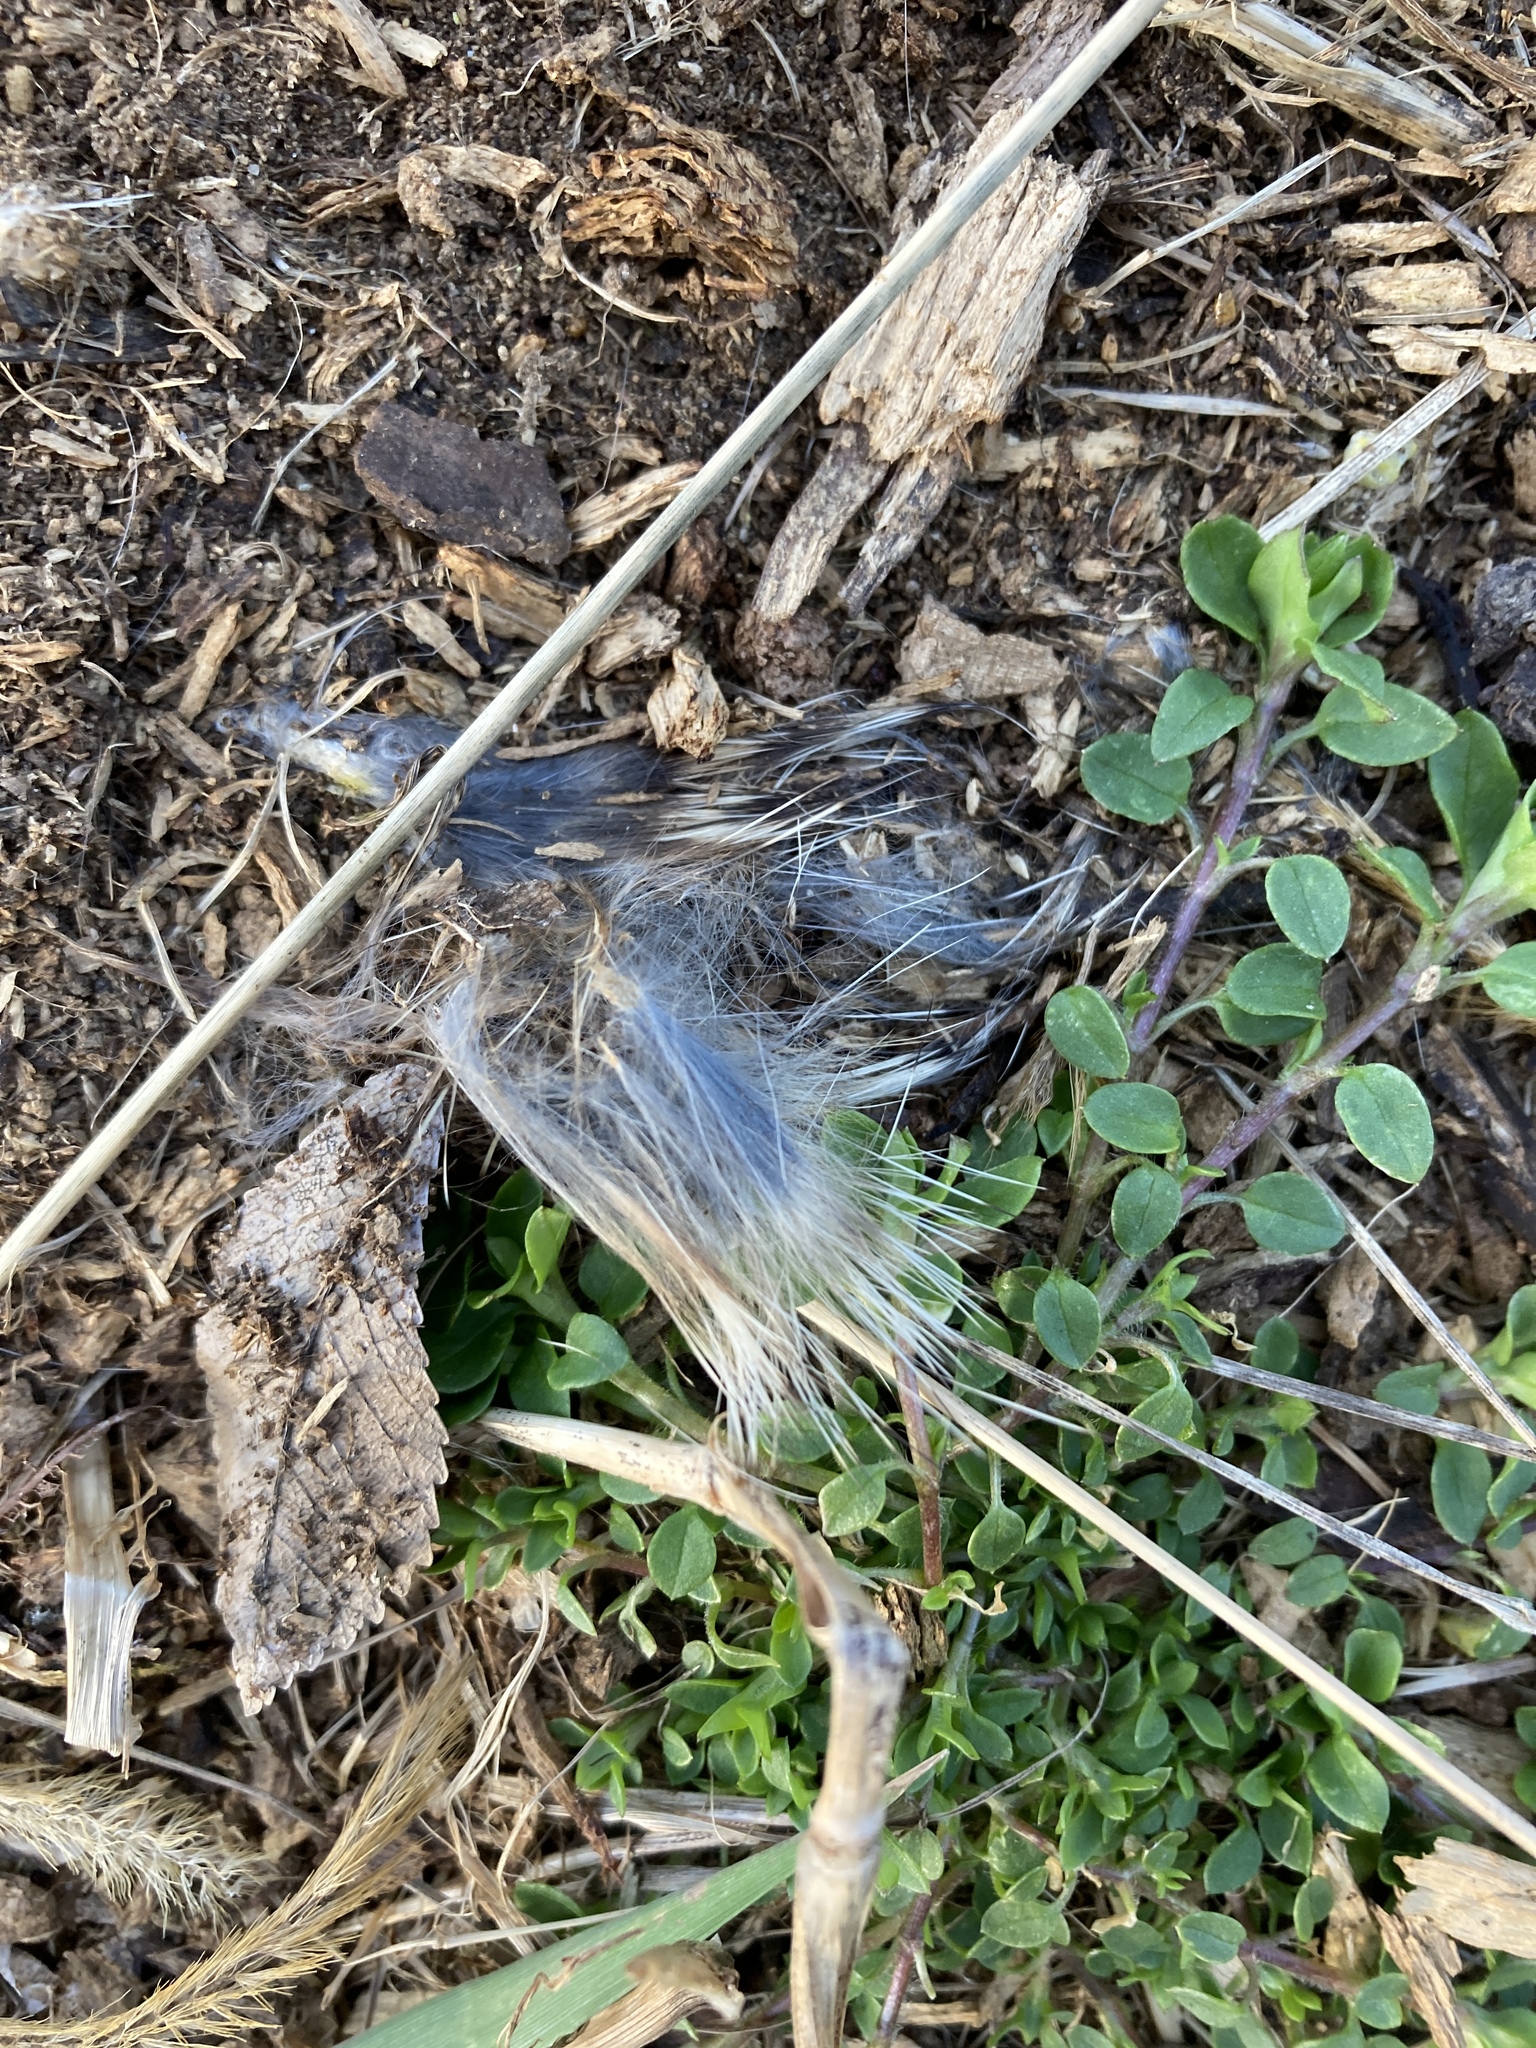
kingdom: Animalia
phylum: Chordata
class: Mammalia
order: Lagomorpha
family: Leporidae
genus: Sylvilagus
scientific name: Sylvilagus floridanus
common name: Eastern cottontail
